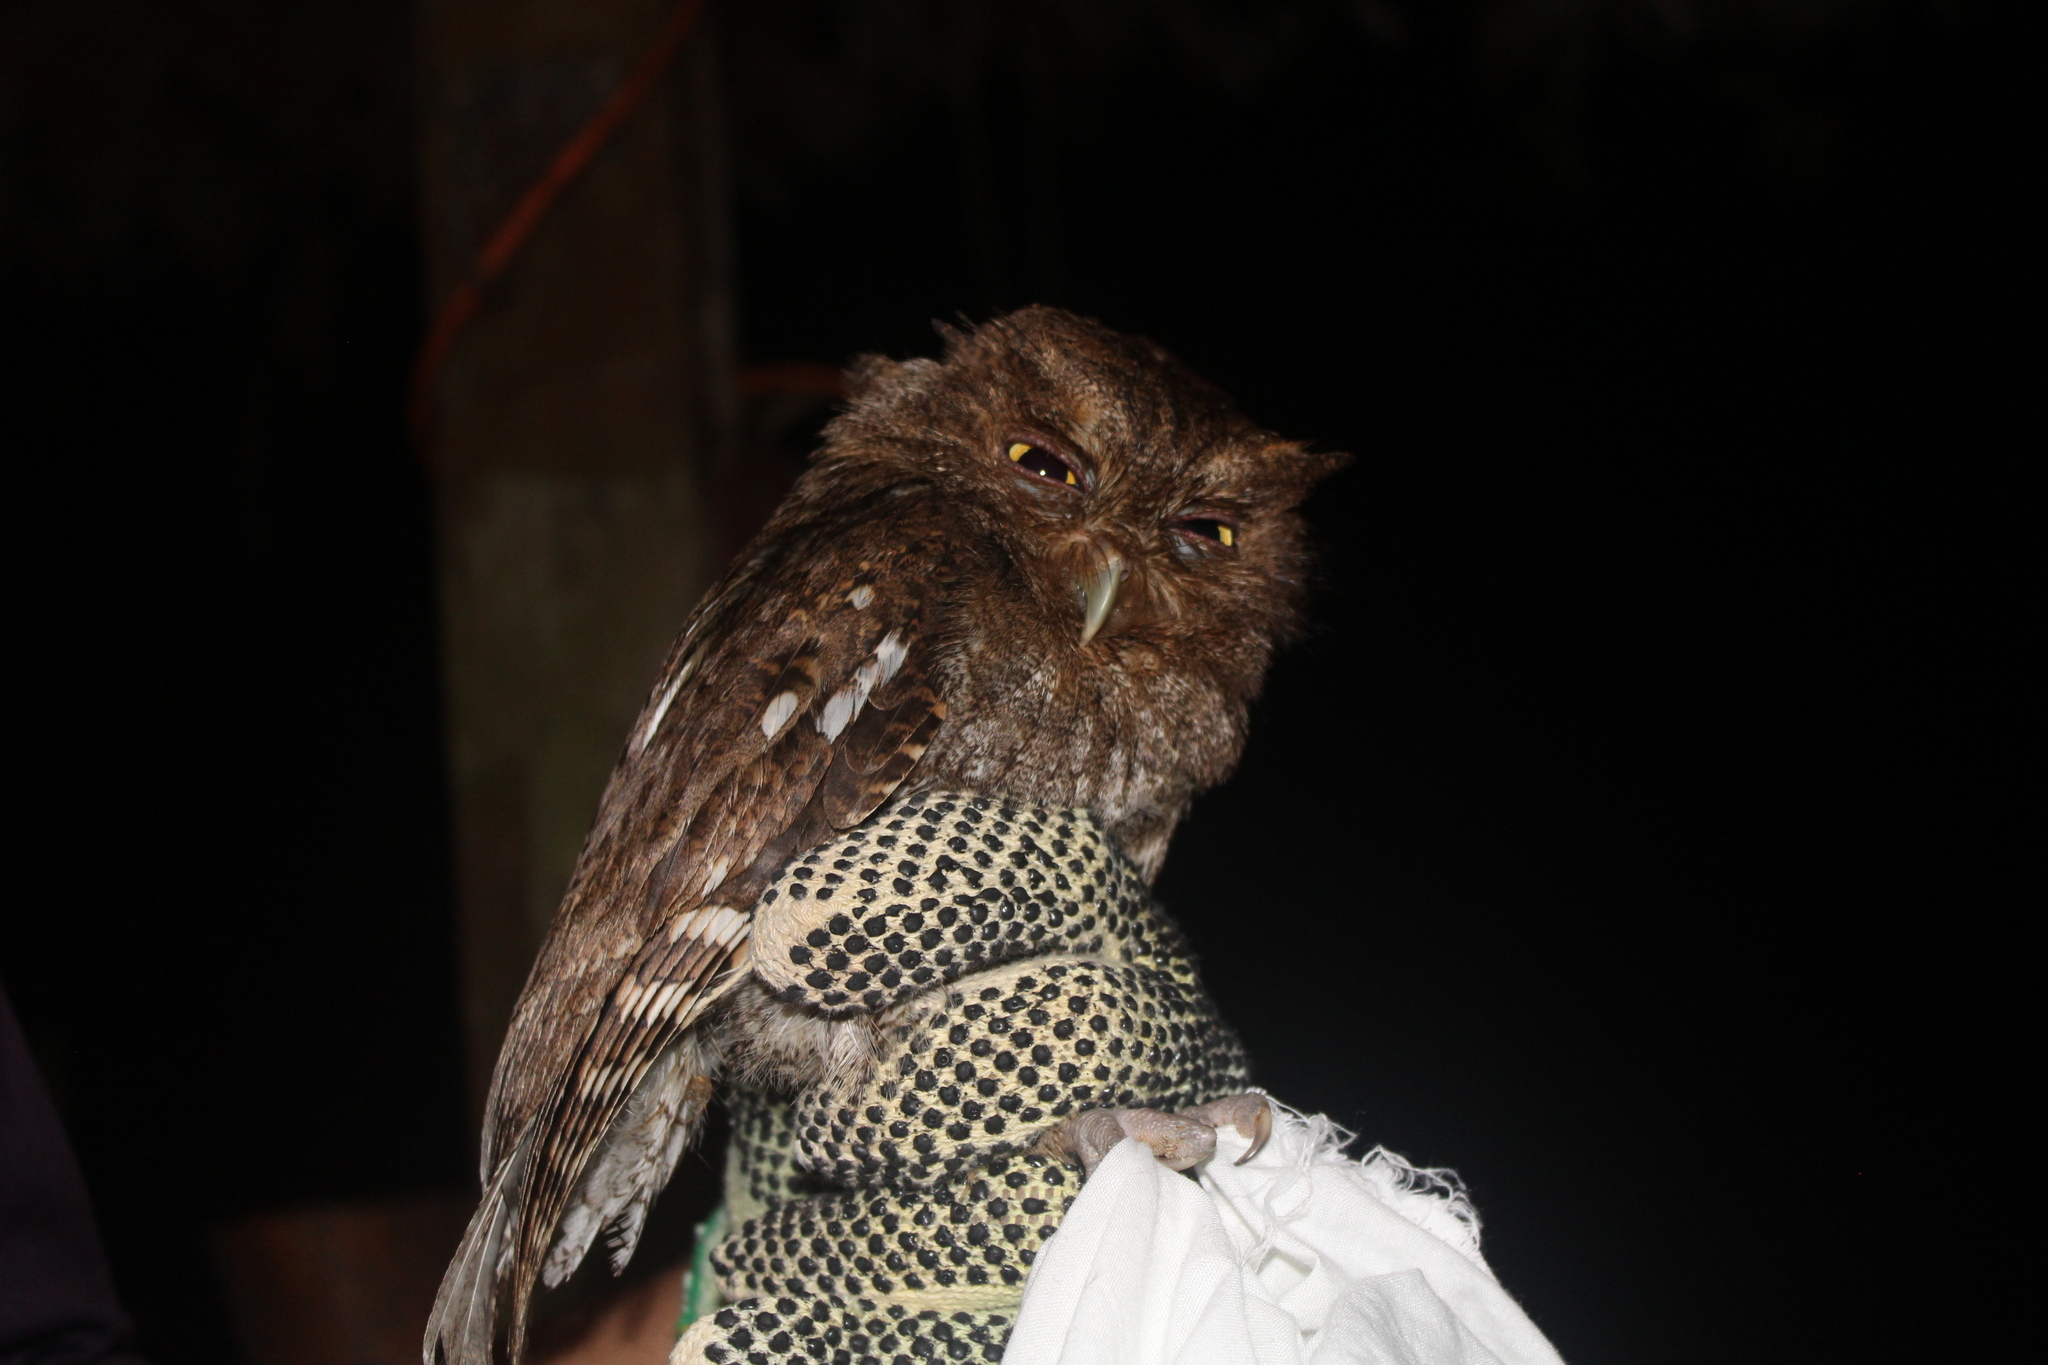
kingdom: Animalia
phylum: Chordata
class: Aves
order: Strigiformes
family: Strigidae
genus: Megascops
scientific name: Megascops centralis
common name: Choco screech owl
